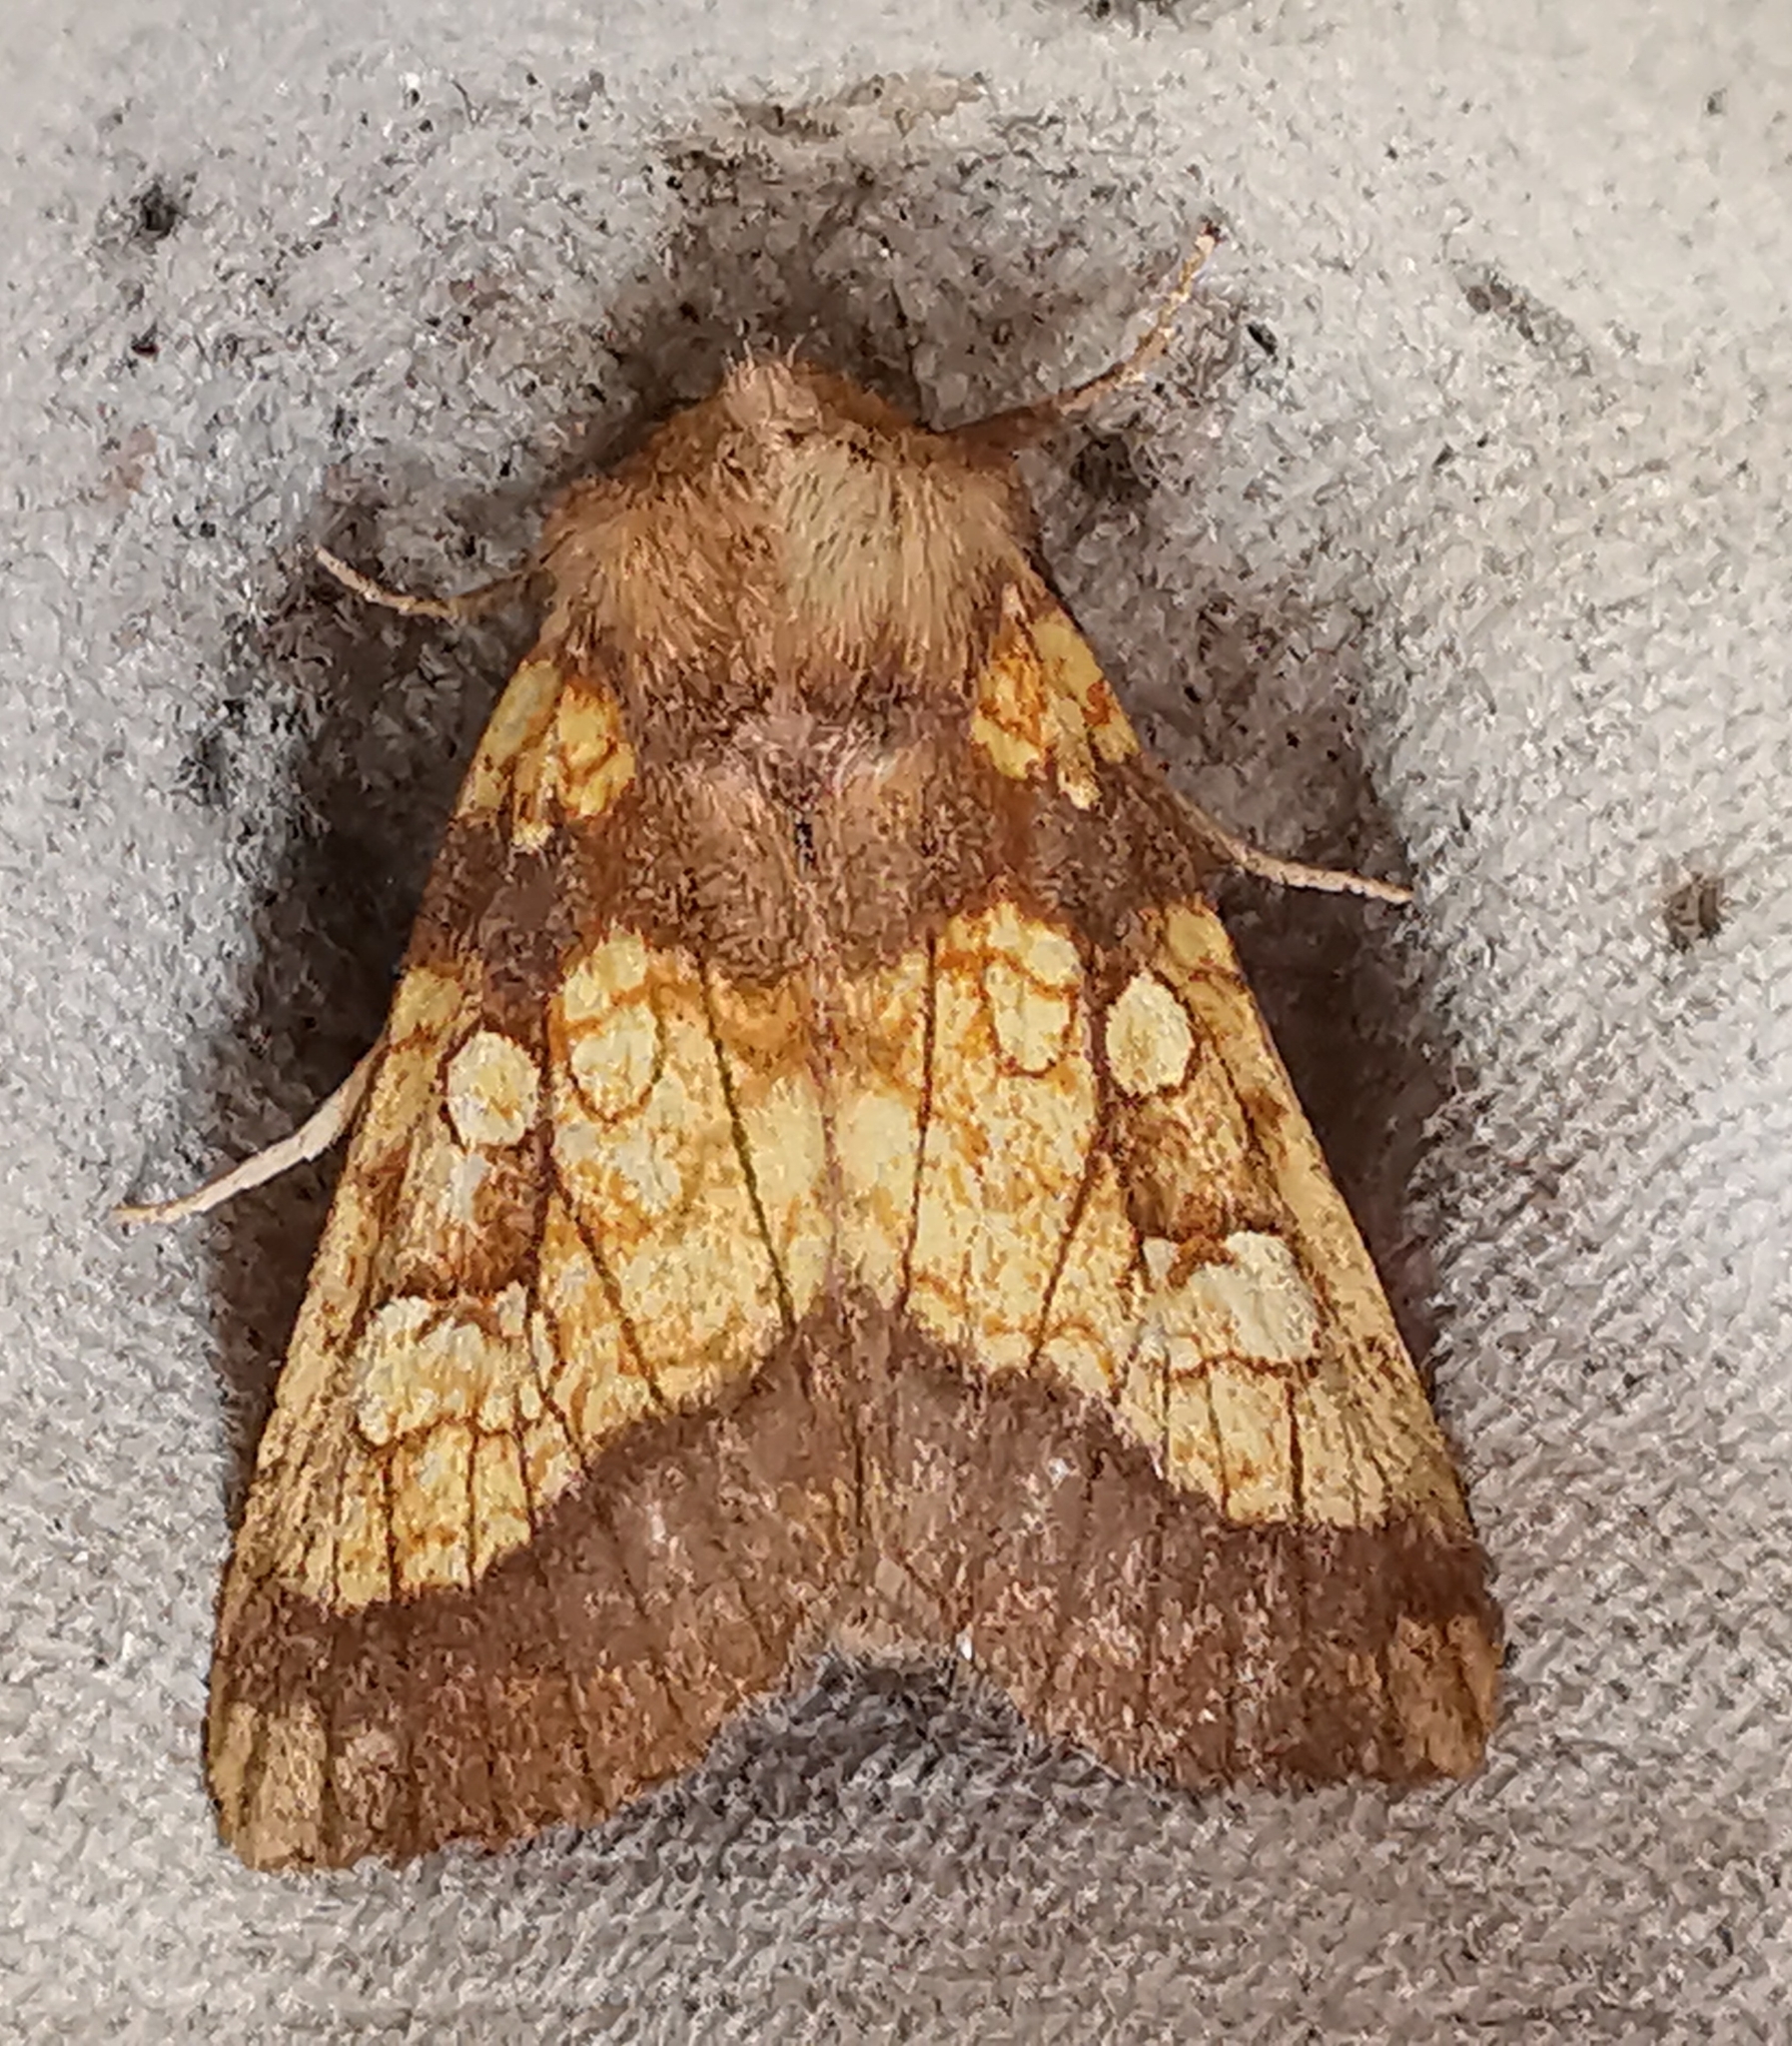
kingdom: Animalia
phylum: Arthropoda
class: Insecta
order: Lepidoptera
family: Noctuidae
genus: Gortyna
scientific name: Gortyna flavago
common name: Frosted orange
